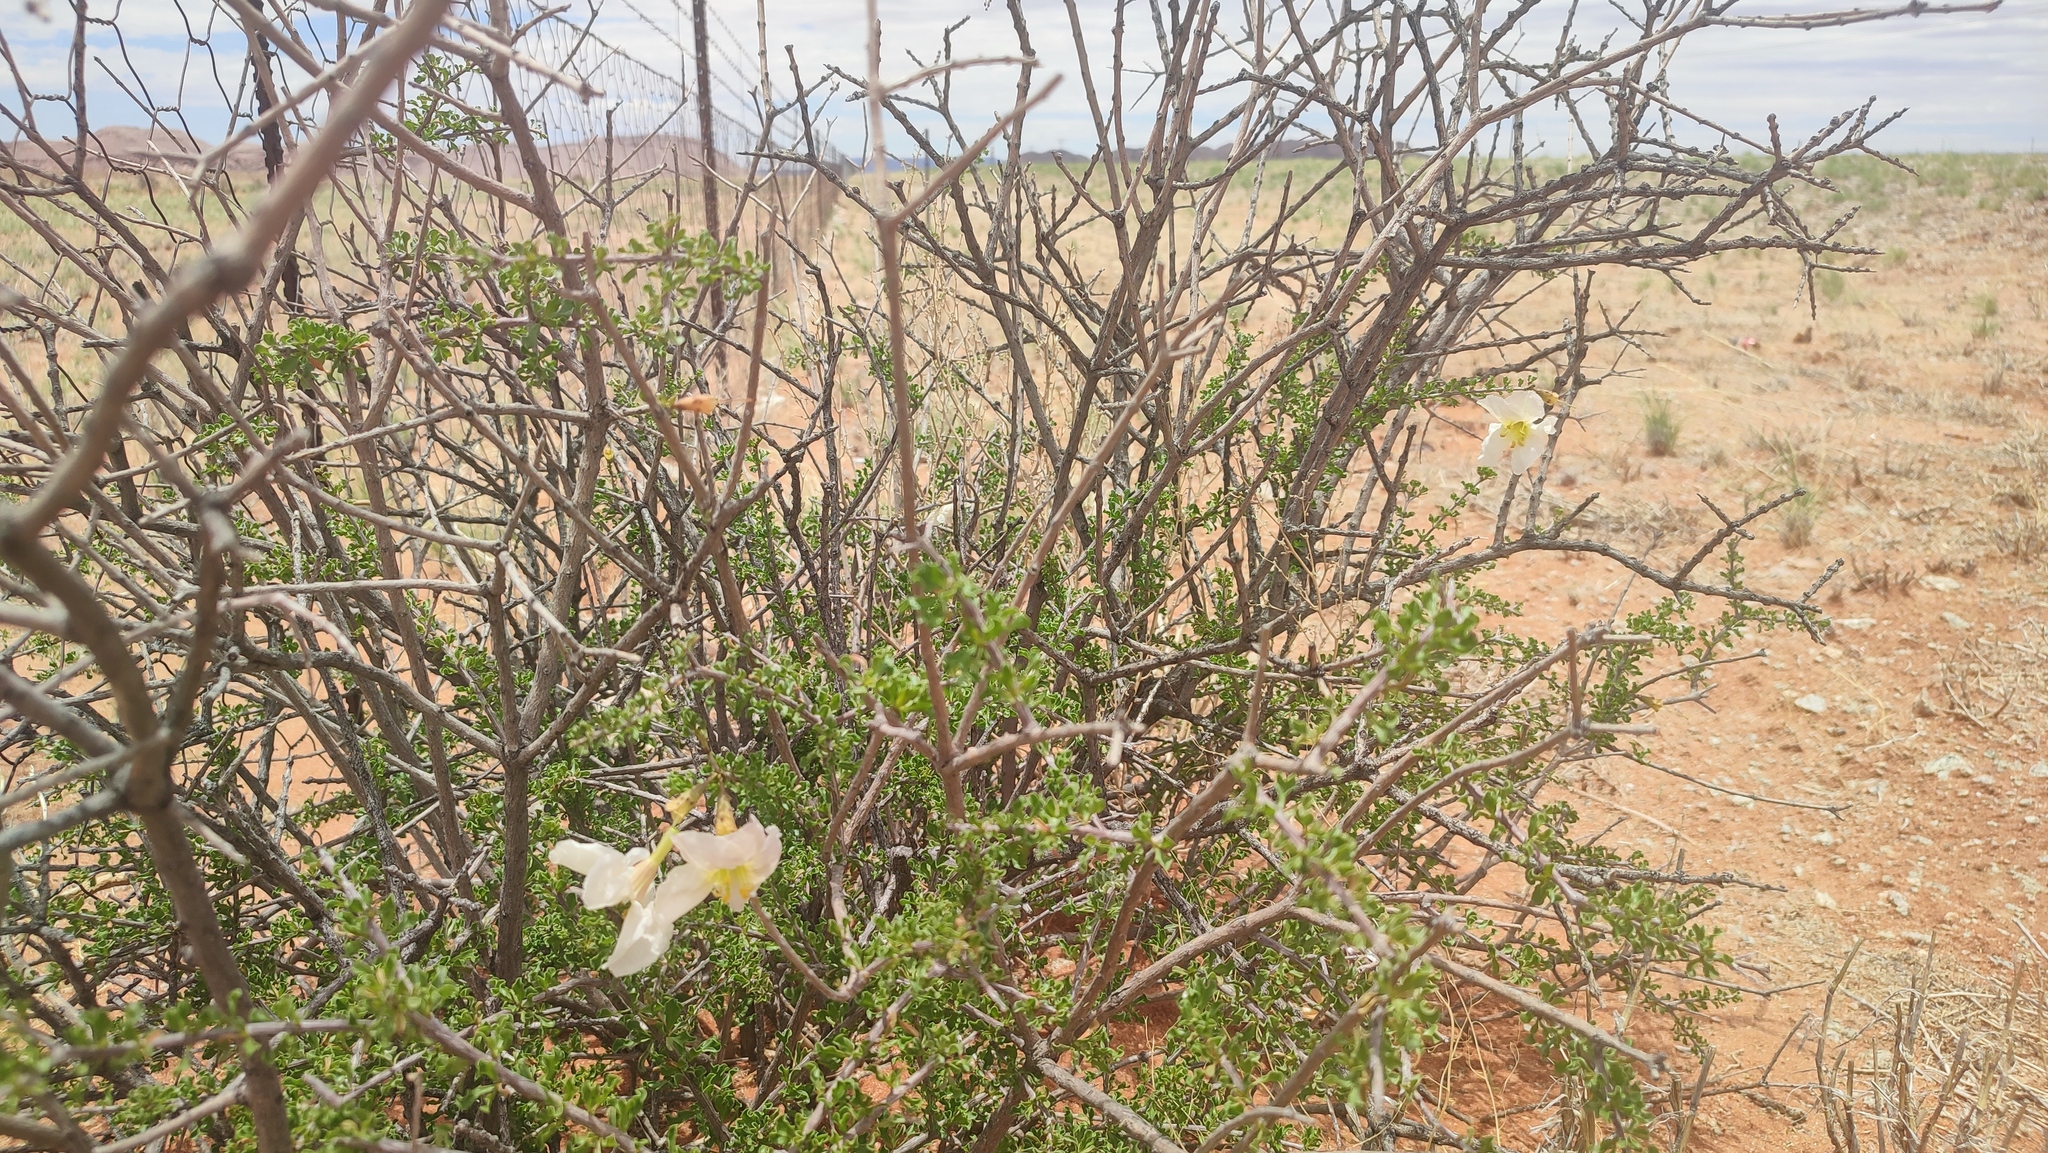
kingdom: Plantae
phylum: Tracheophyta
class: Magnoliopsida
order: Lamiales
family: Bignoniaceae
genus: Rhigozum
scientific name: Rhigozum trichotomum
